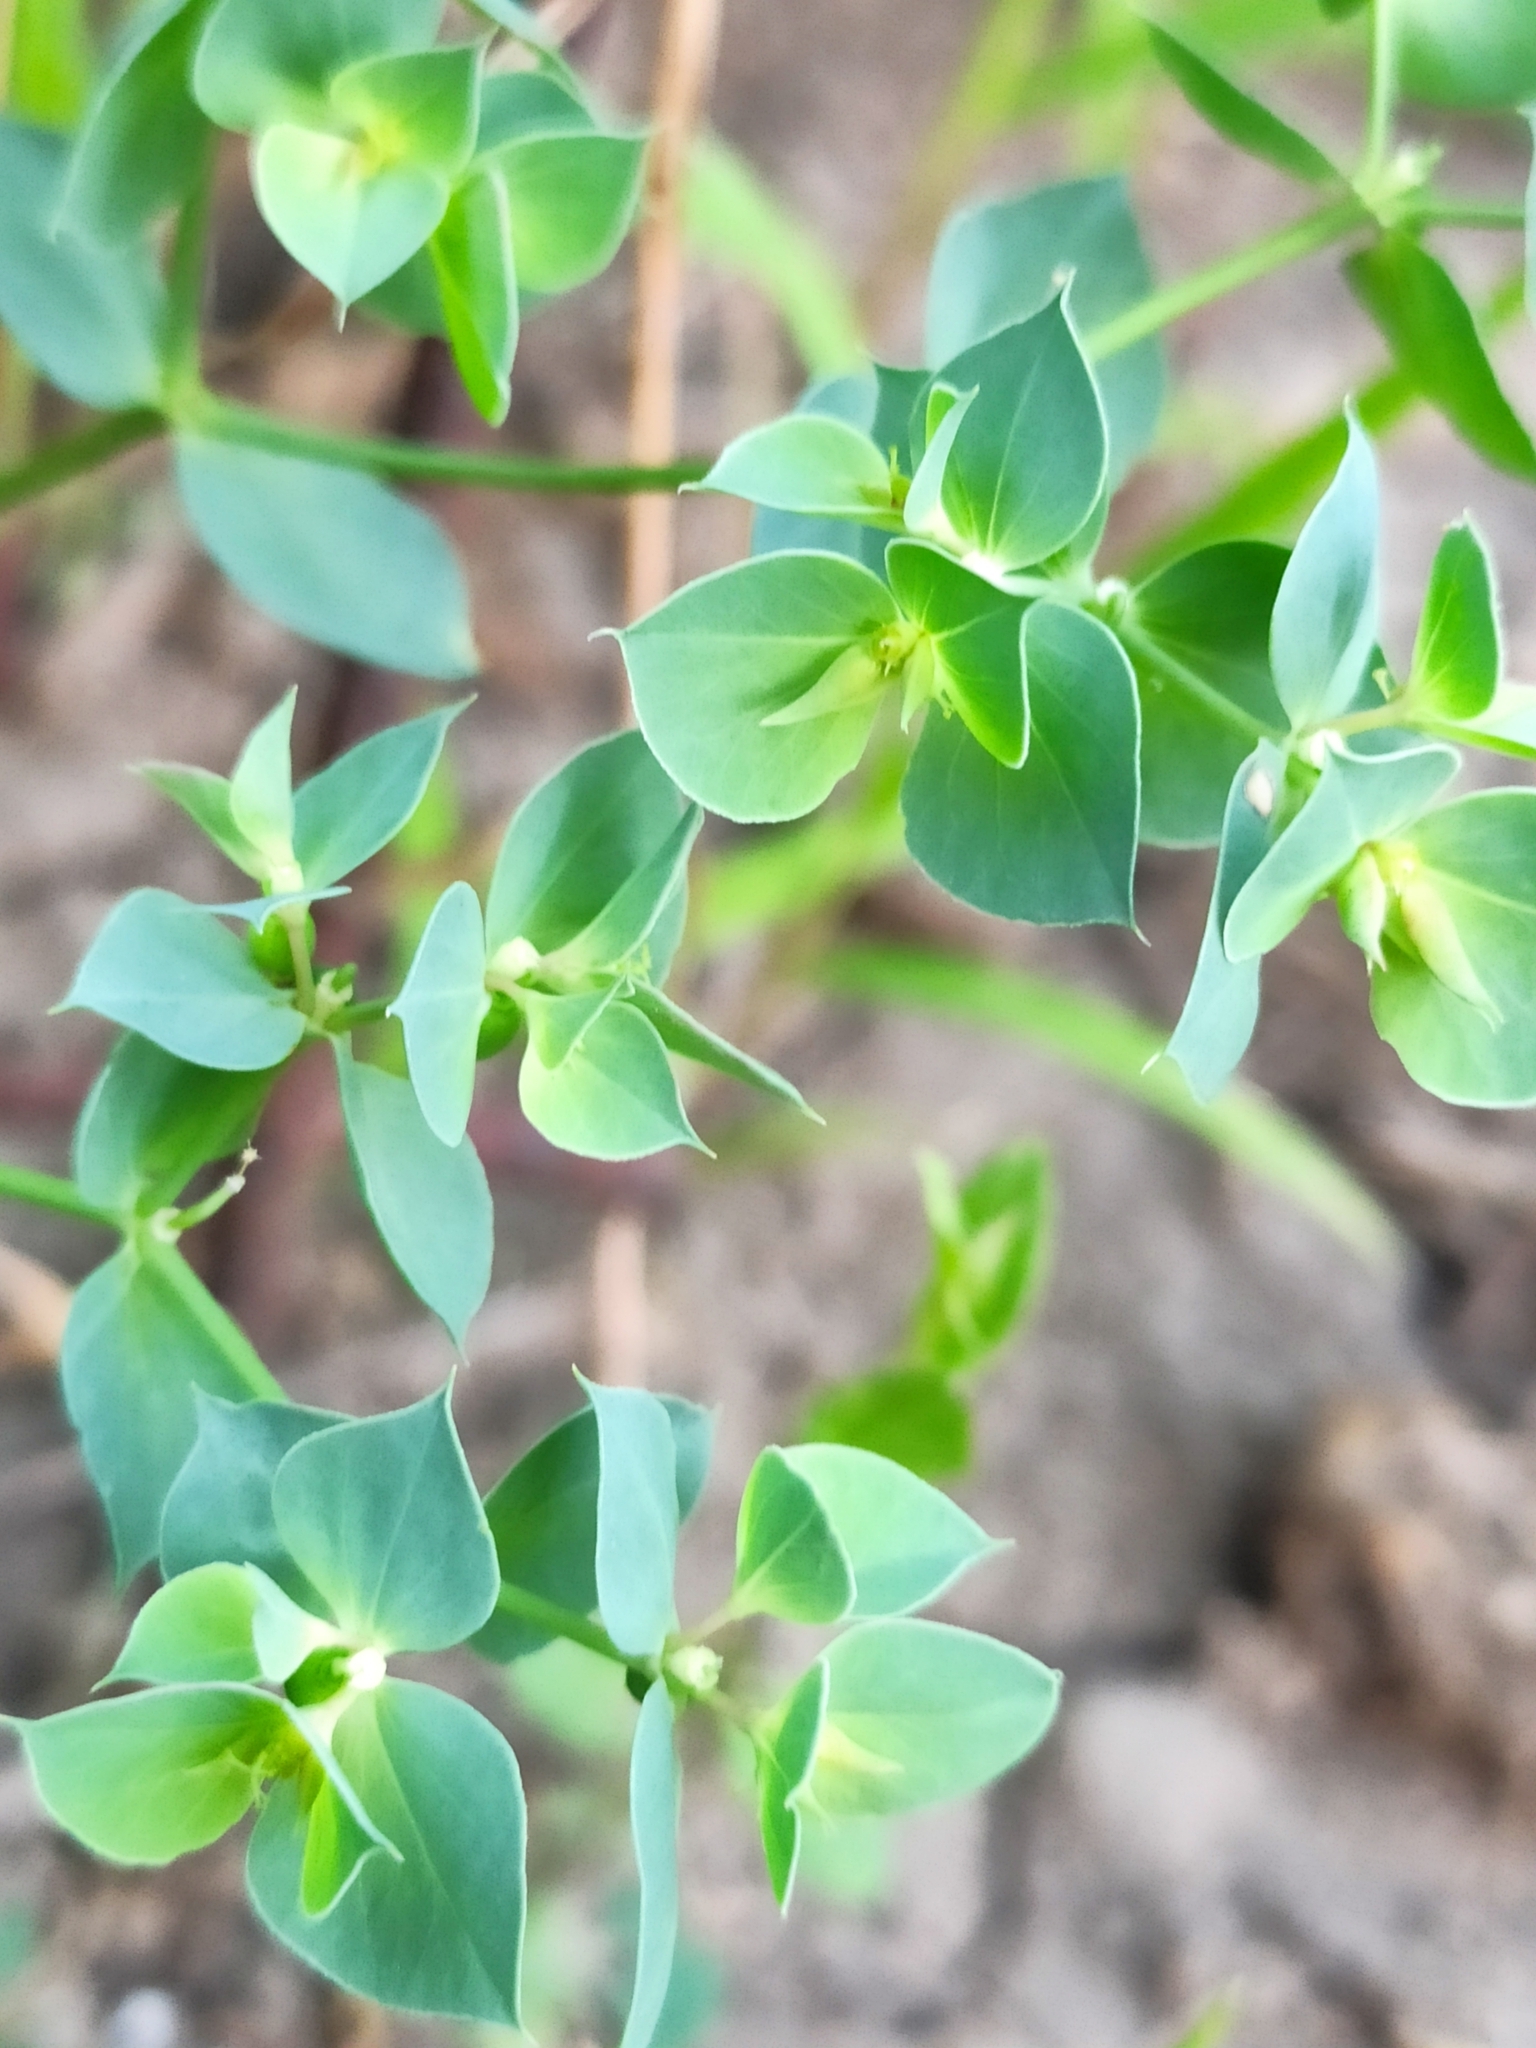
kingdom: Plantae
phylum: Tracheophyta
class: Magnoliopsida
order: Malpighiales
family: Euphorbiaceae
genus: Euphorbia
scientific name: Euphorbia falcata
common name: Sickle spurge
